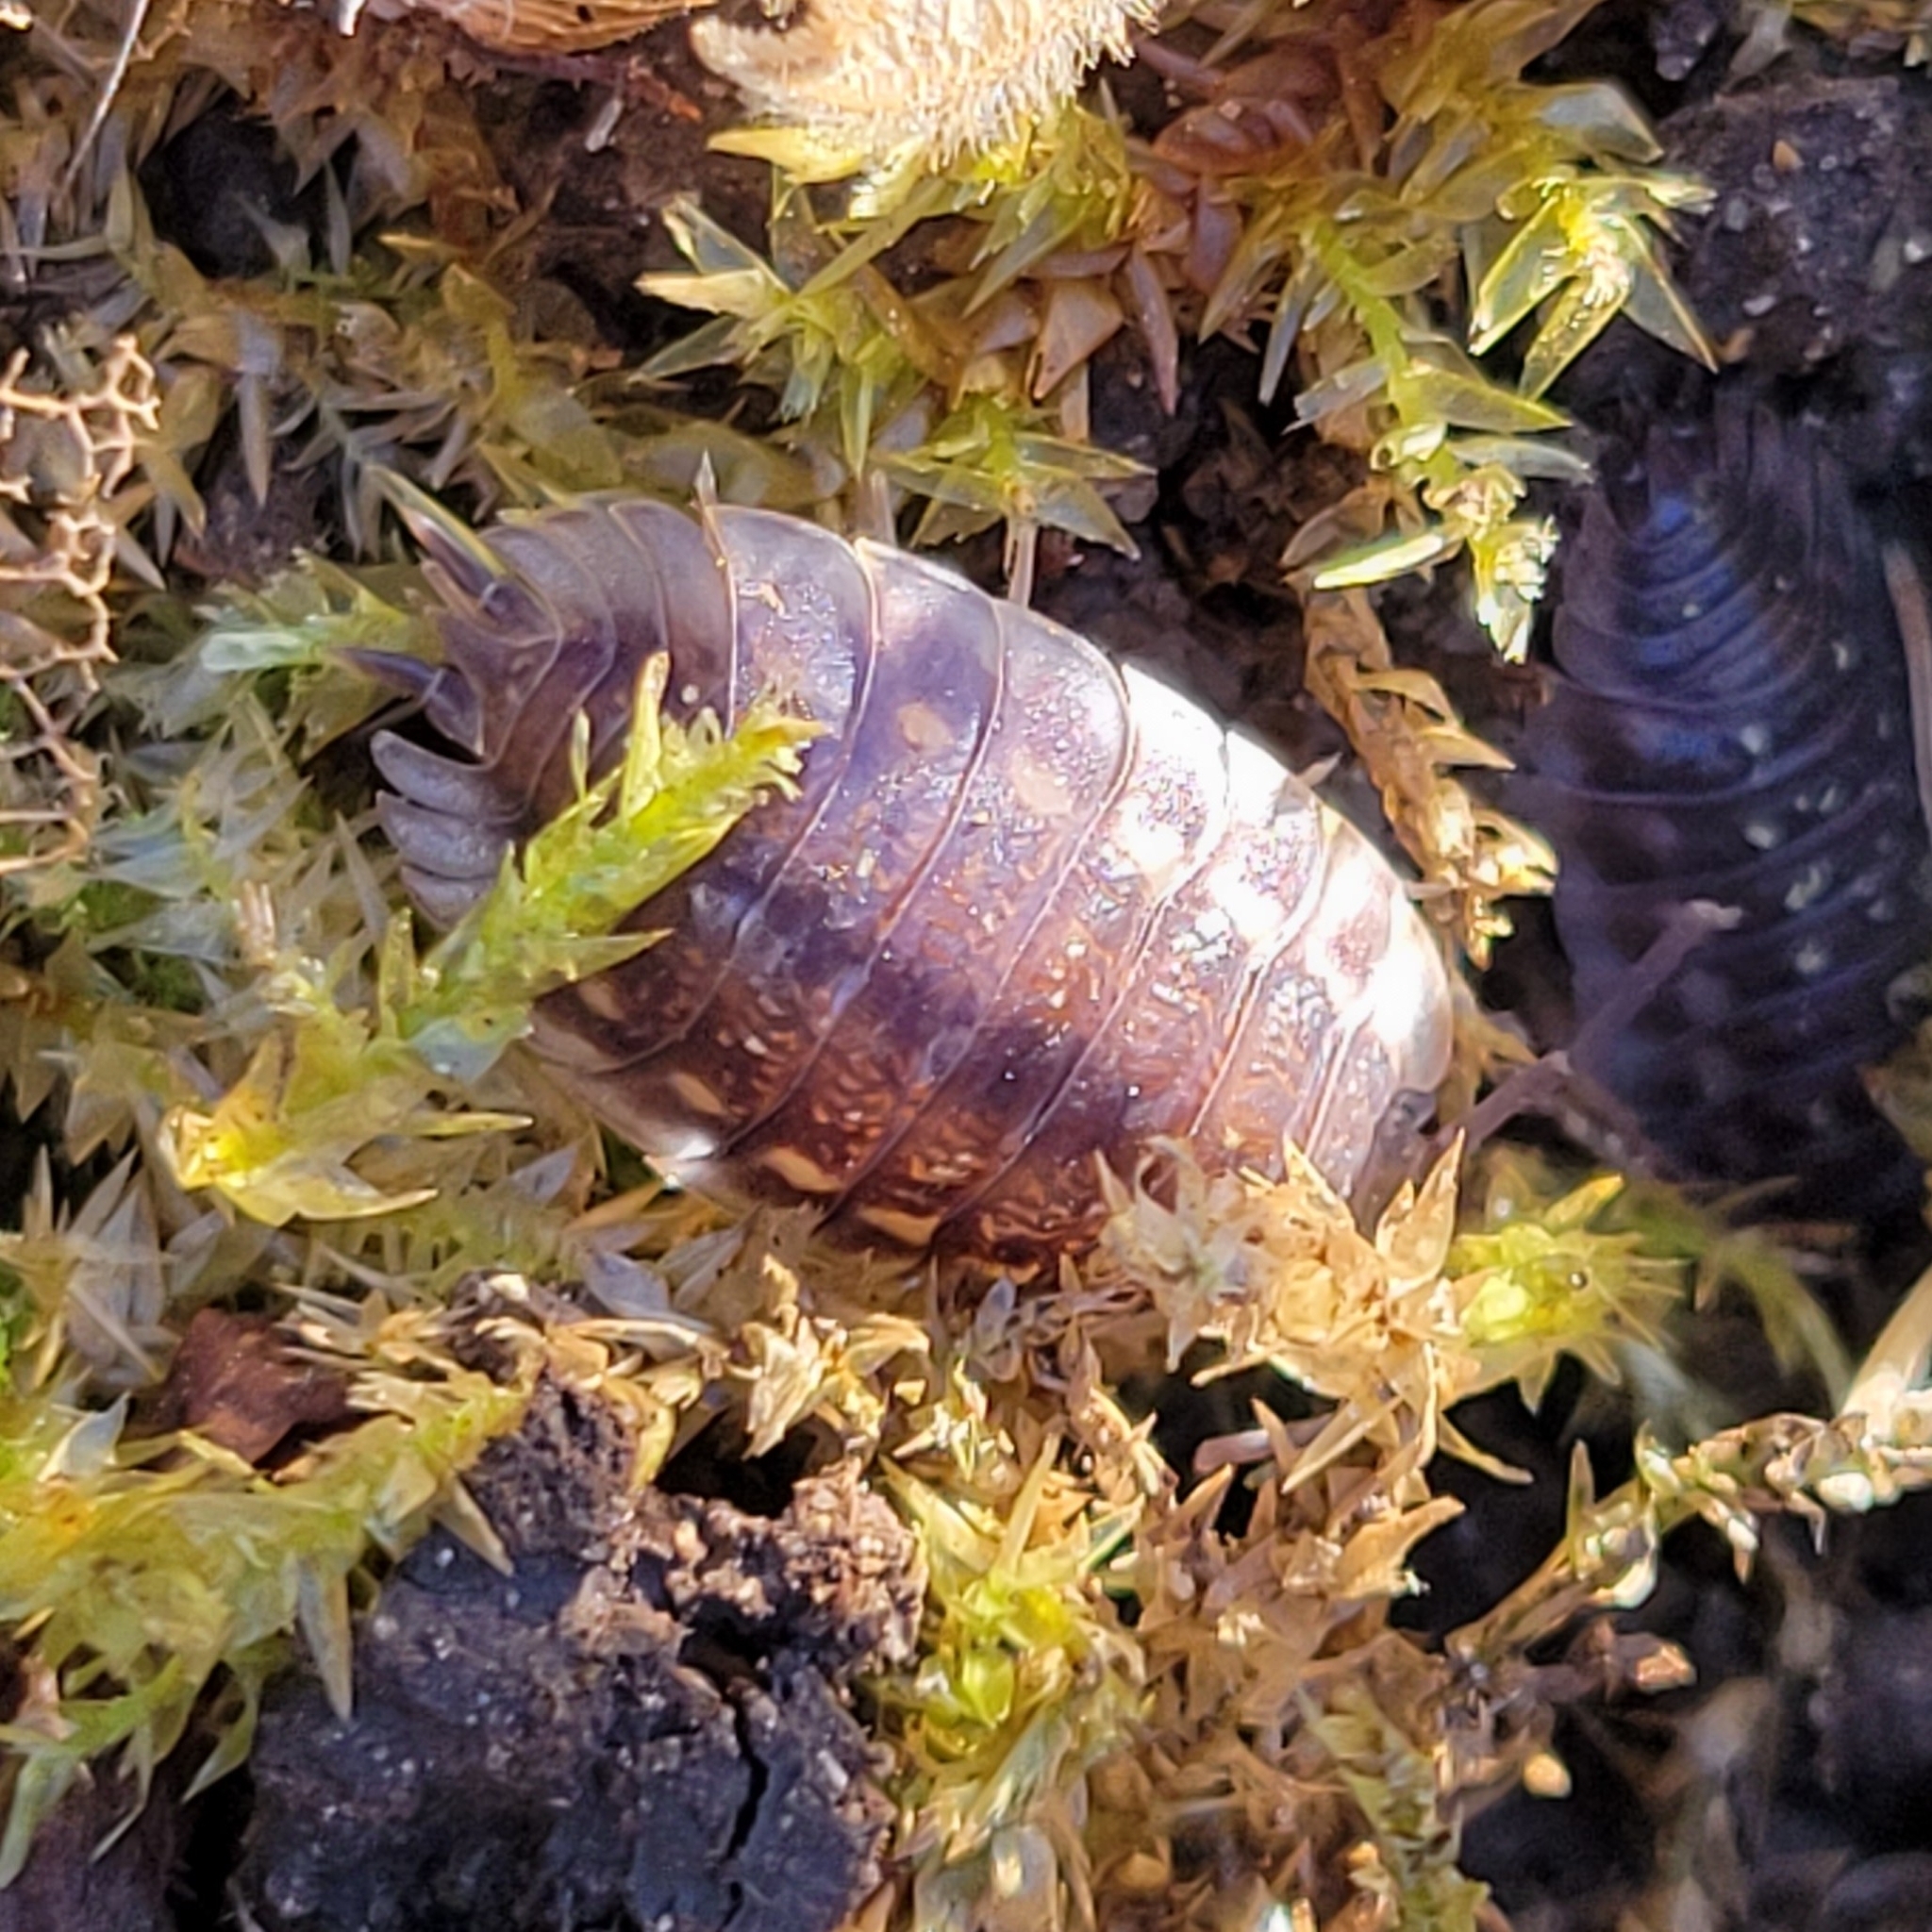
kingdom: Animalia
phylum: Arthropoda
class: Malacostraca
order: Isopoda
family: Oniscidae
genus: Oniscus
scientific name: Oniscus asellus
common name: Common shiny woodlouse
